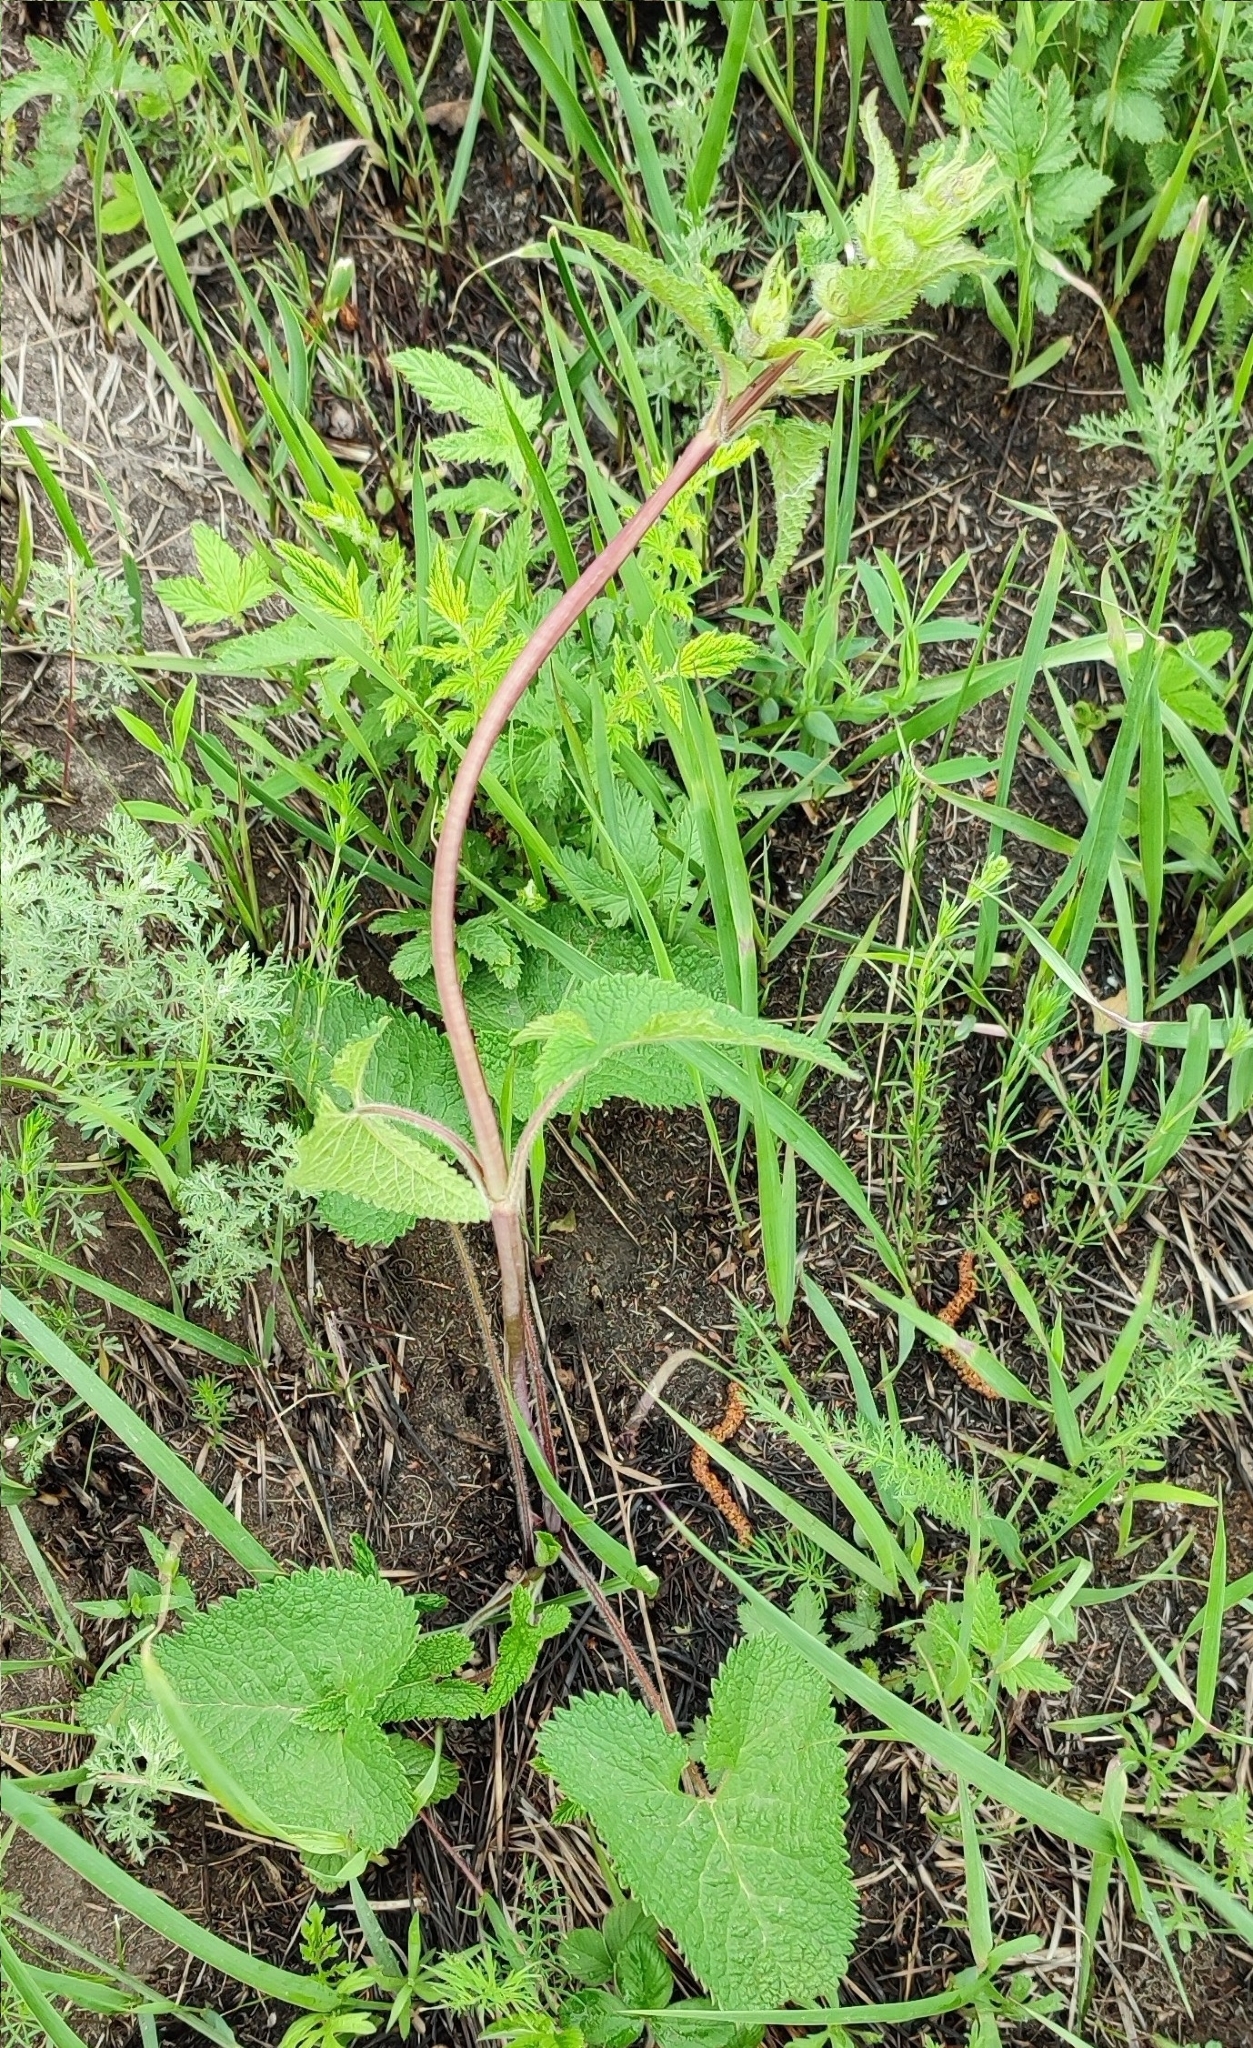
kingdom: Plantae
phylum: Tracheophyta
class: Magnoliopsida
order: Lamiales
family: Lamiaceae
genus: Phlomoides
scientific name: Phlomoides tuberosa
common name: Tuberous jerusalem sage
